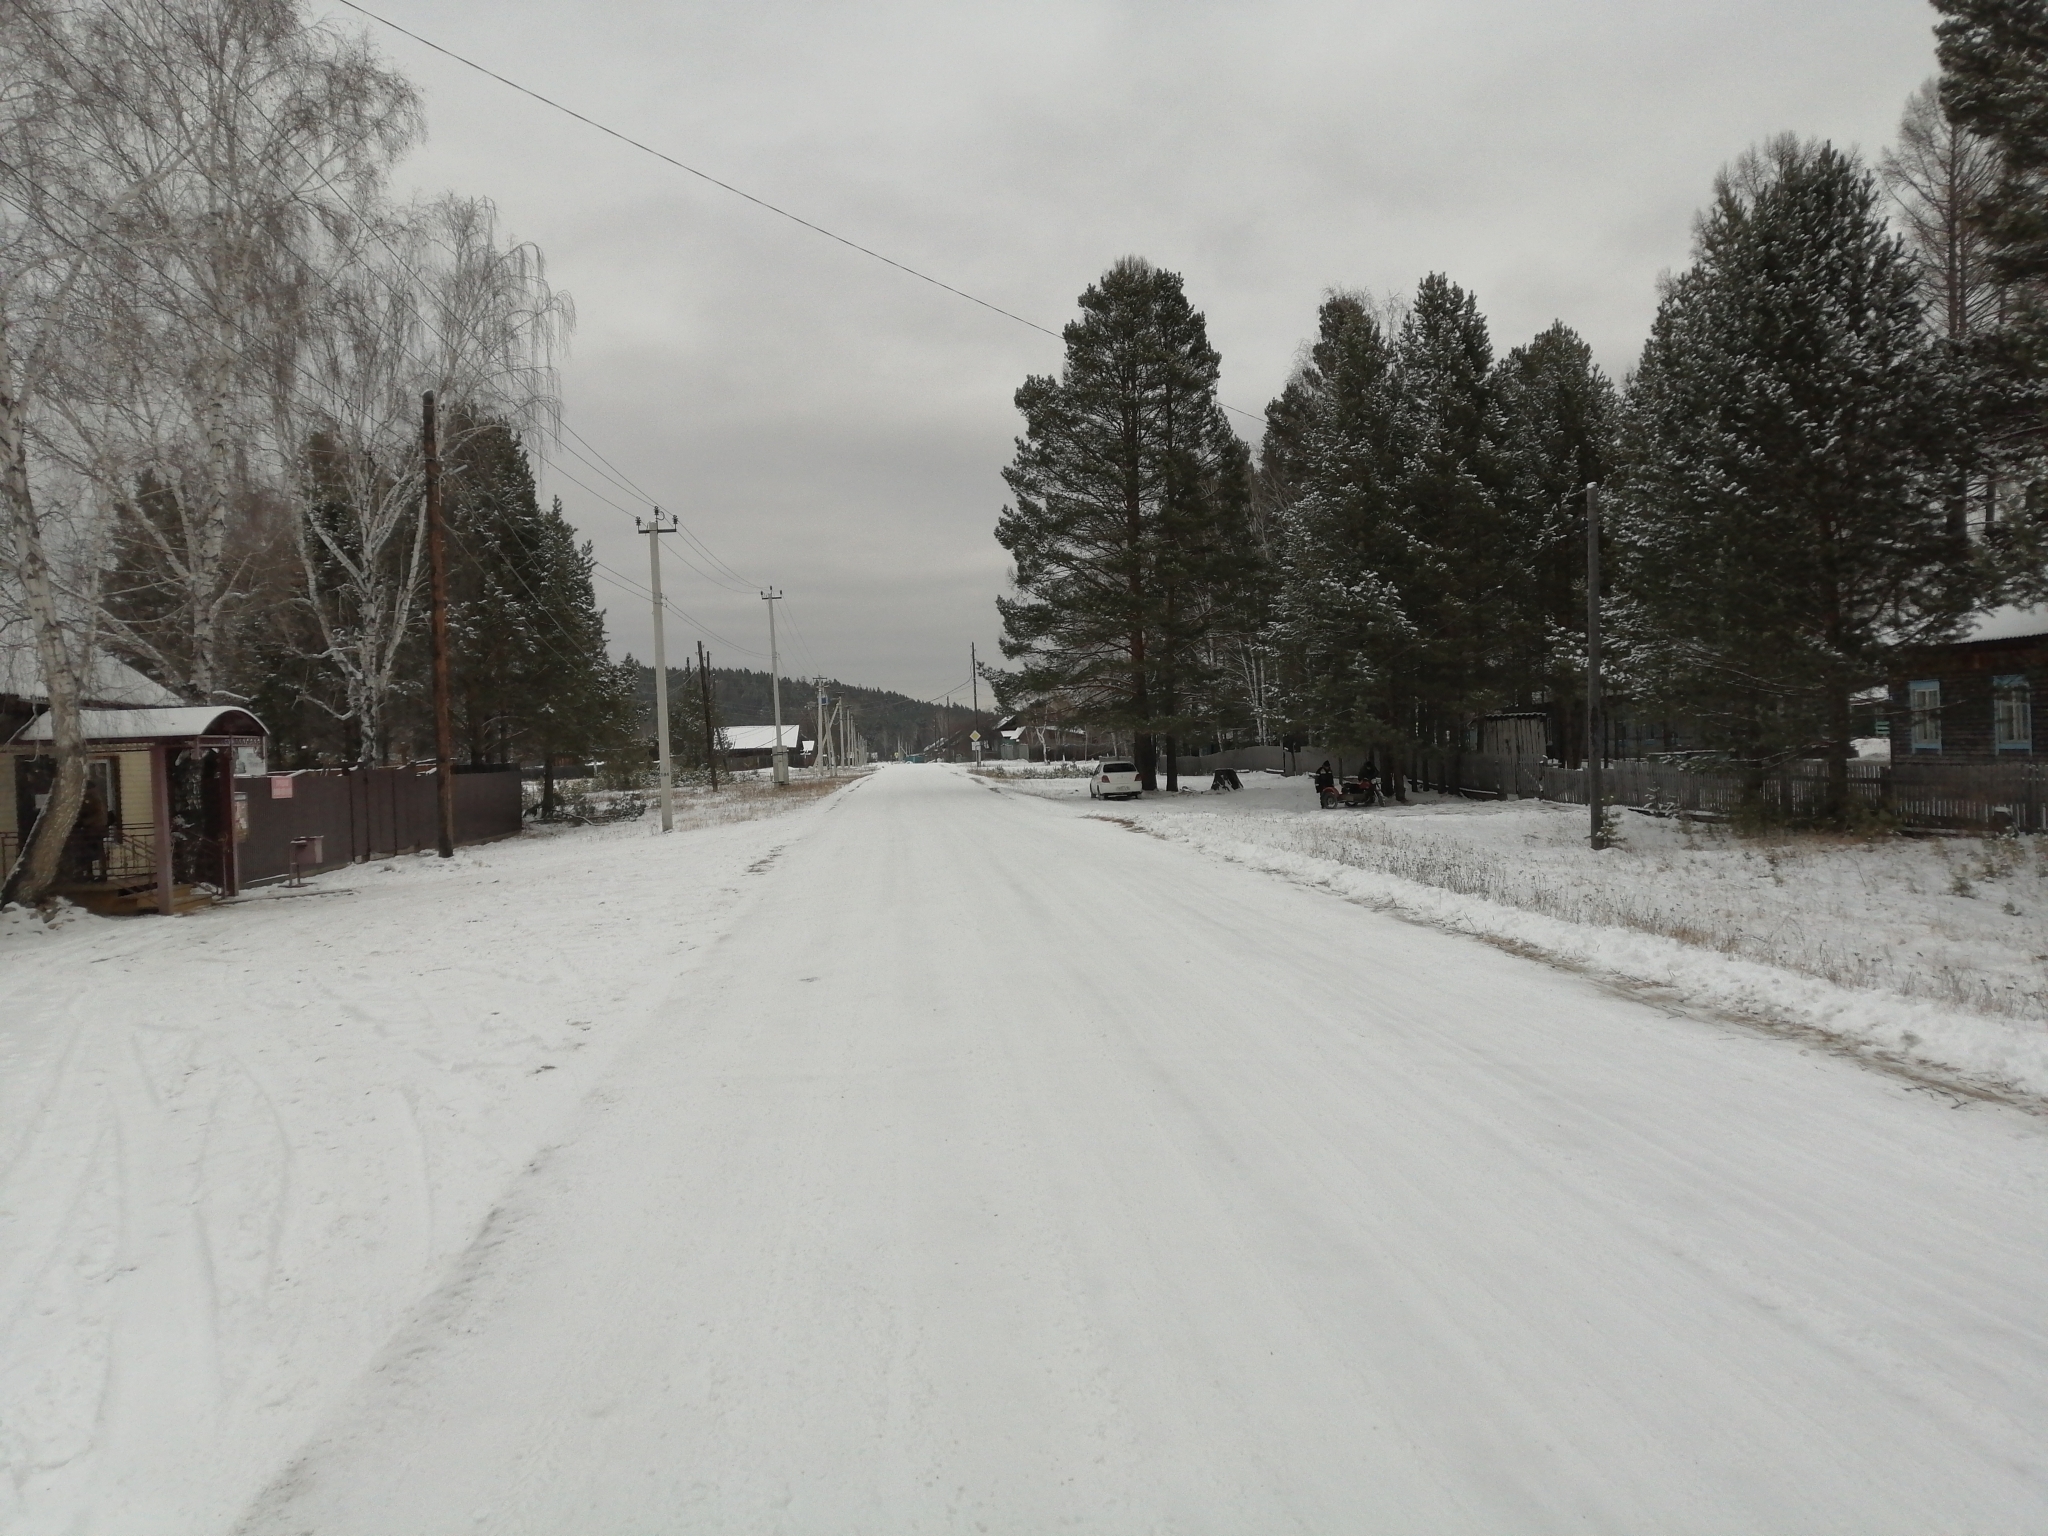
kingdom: Plantae
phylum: Tracheophyta
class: Pinopsida
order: Pinales
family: Pinaceae
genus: Pinus
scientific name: Pinus sylvestris
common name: Scots pine
